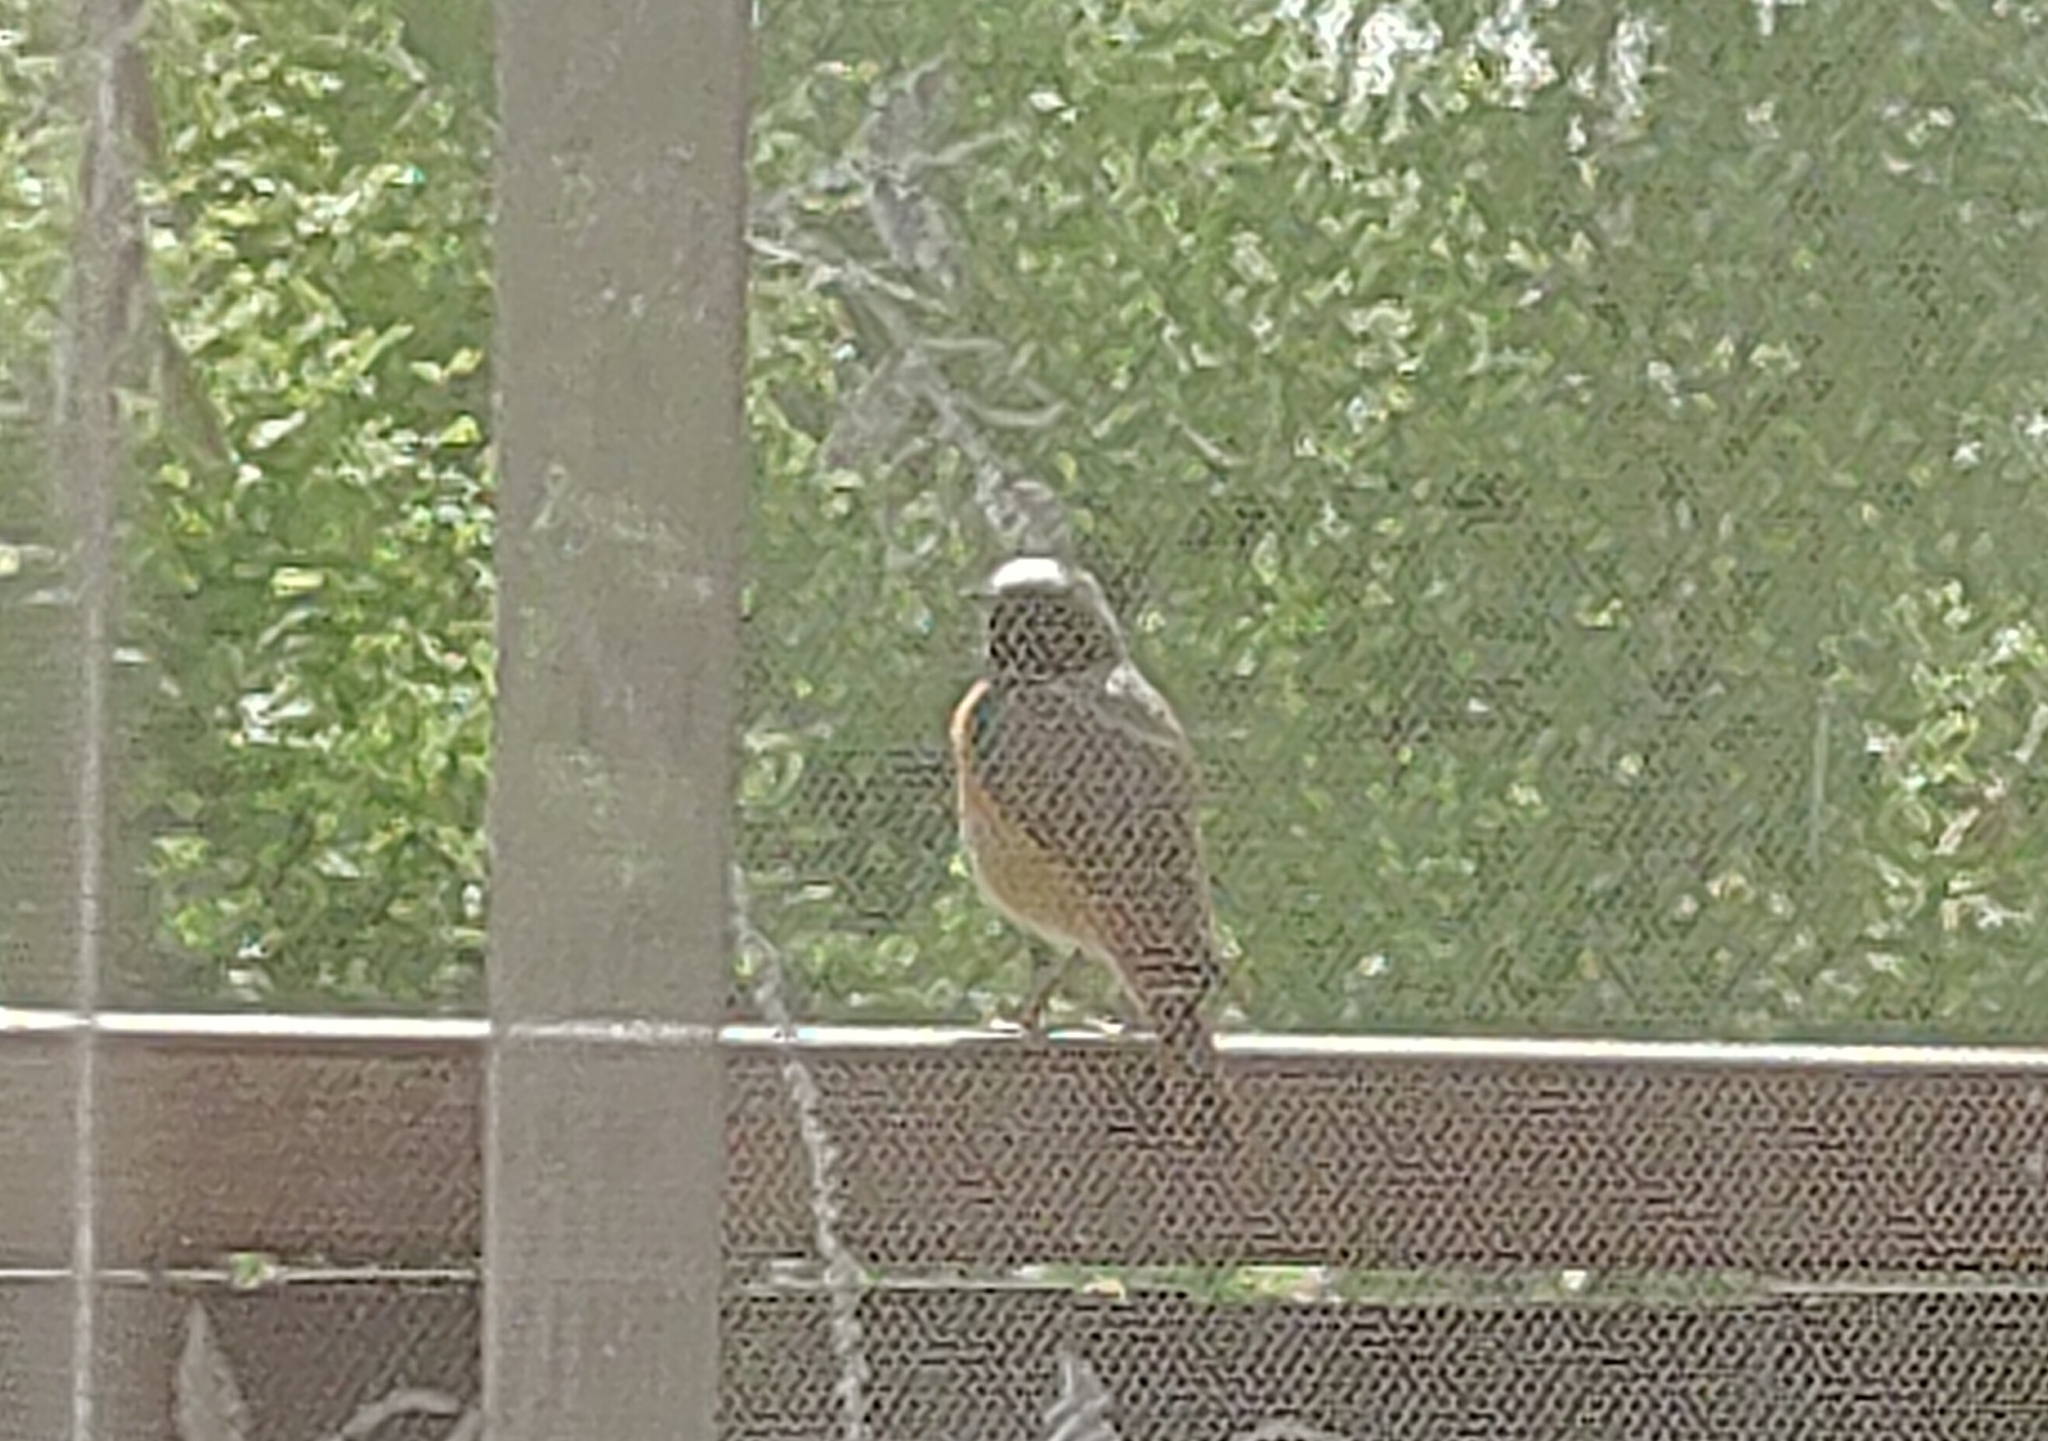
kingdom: Animalia
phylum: Chordata
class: Aves
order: Passeriformes
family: Muscicapidae
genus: Phoenicurus
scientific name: Phoenicurus phoenicurus
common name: Common redstart
